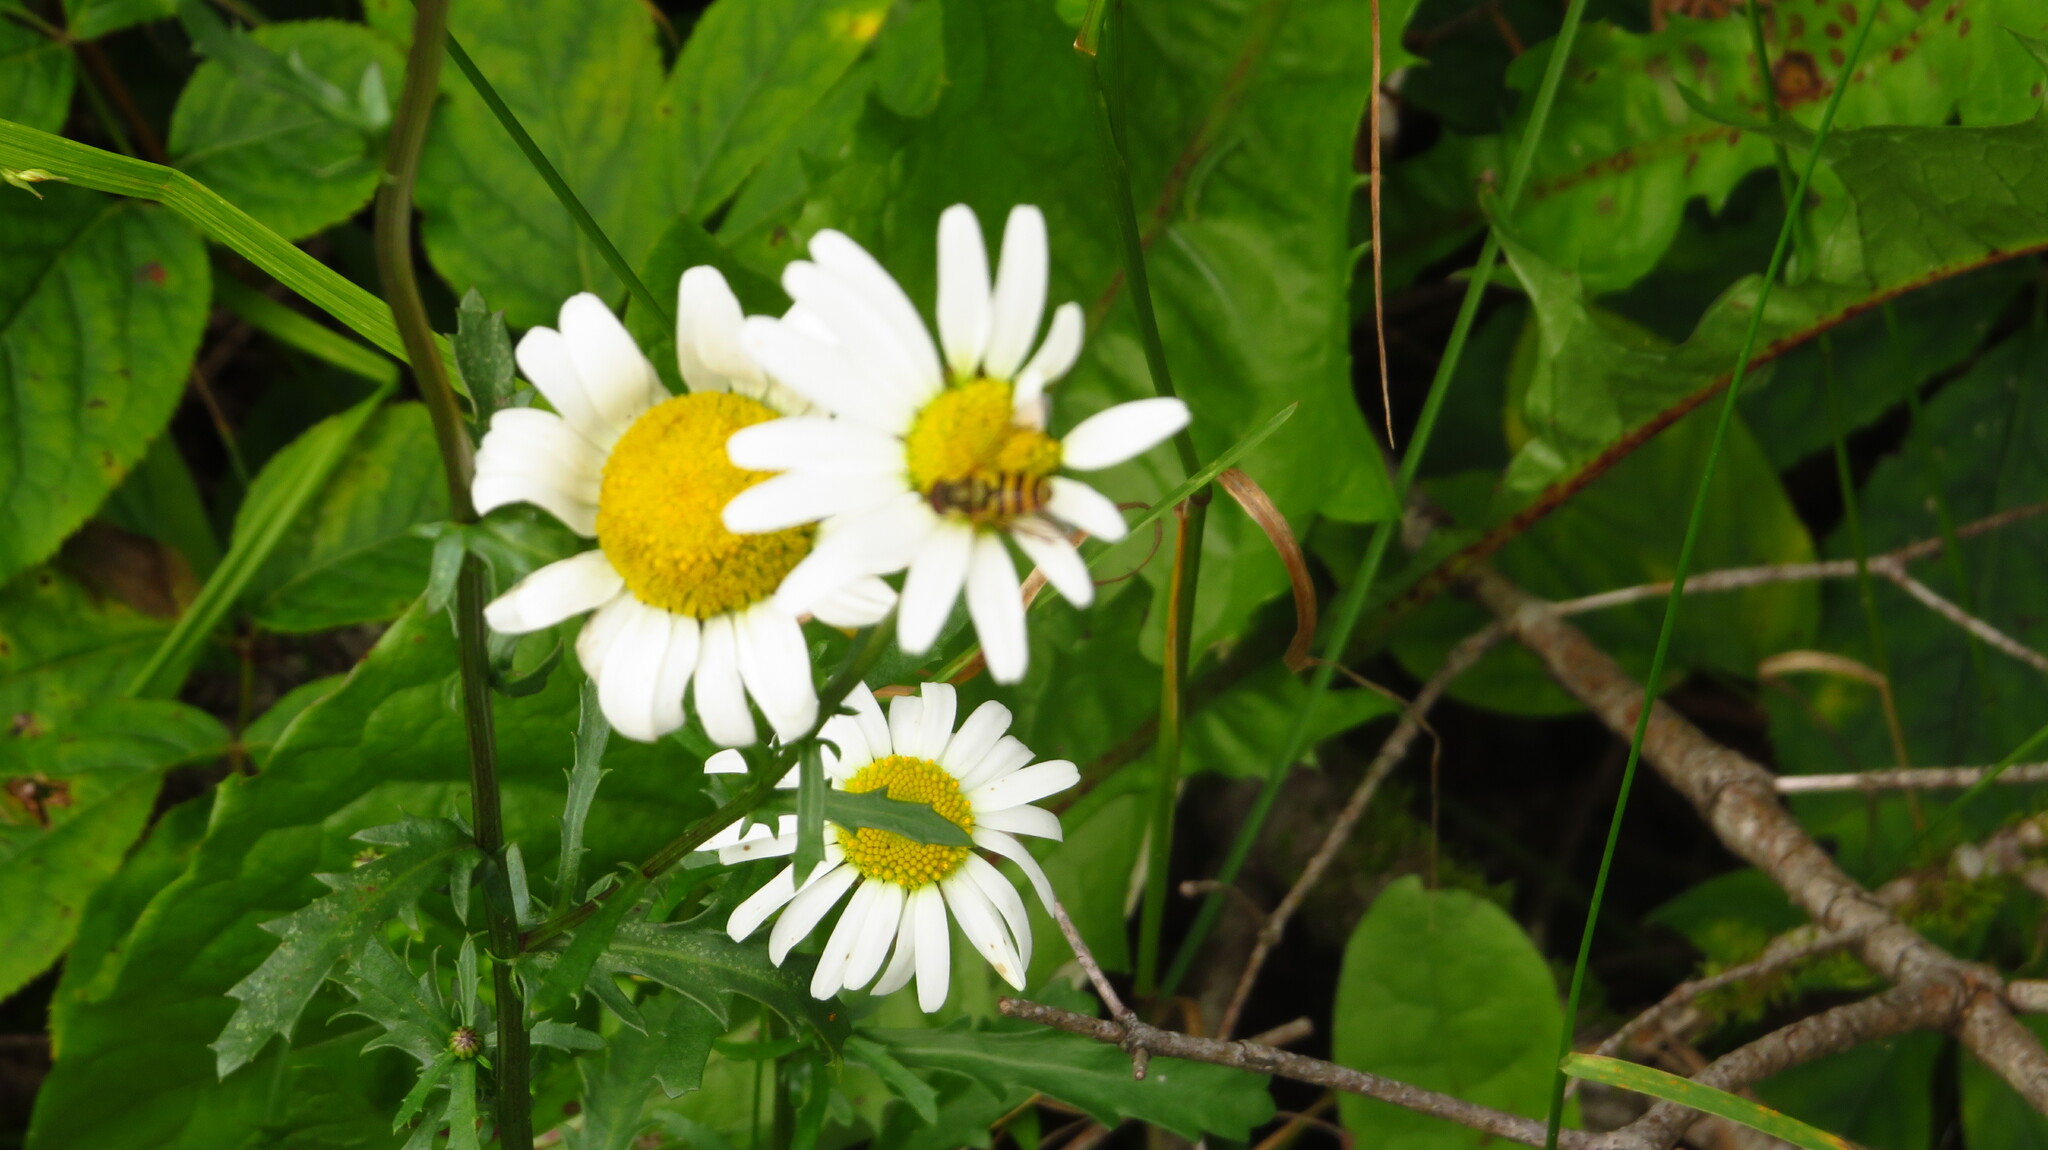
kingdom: Plantae
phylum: Tracheophyta
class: Magnoliopsida
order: Asterales
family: Asteraceae
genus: Leucanthemum
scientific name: Leucanthemum vulgare
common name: Oxeye daisy
